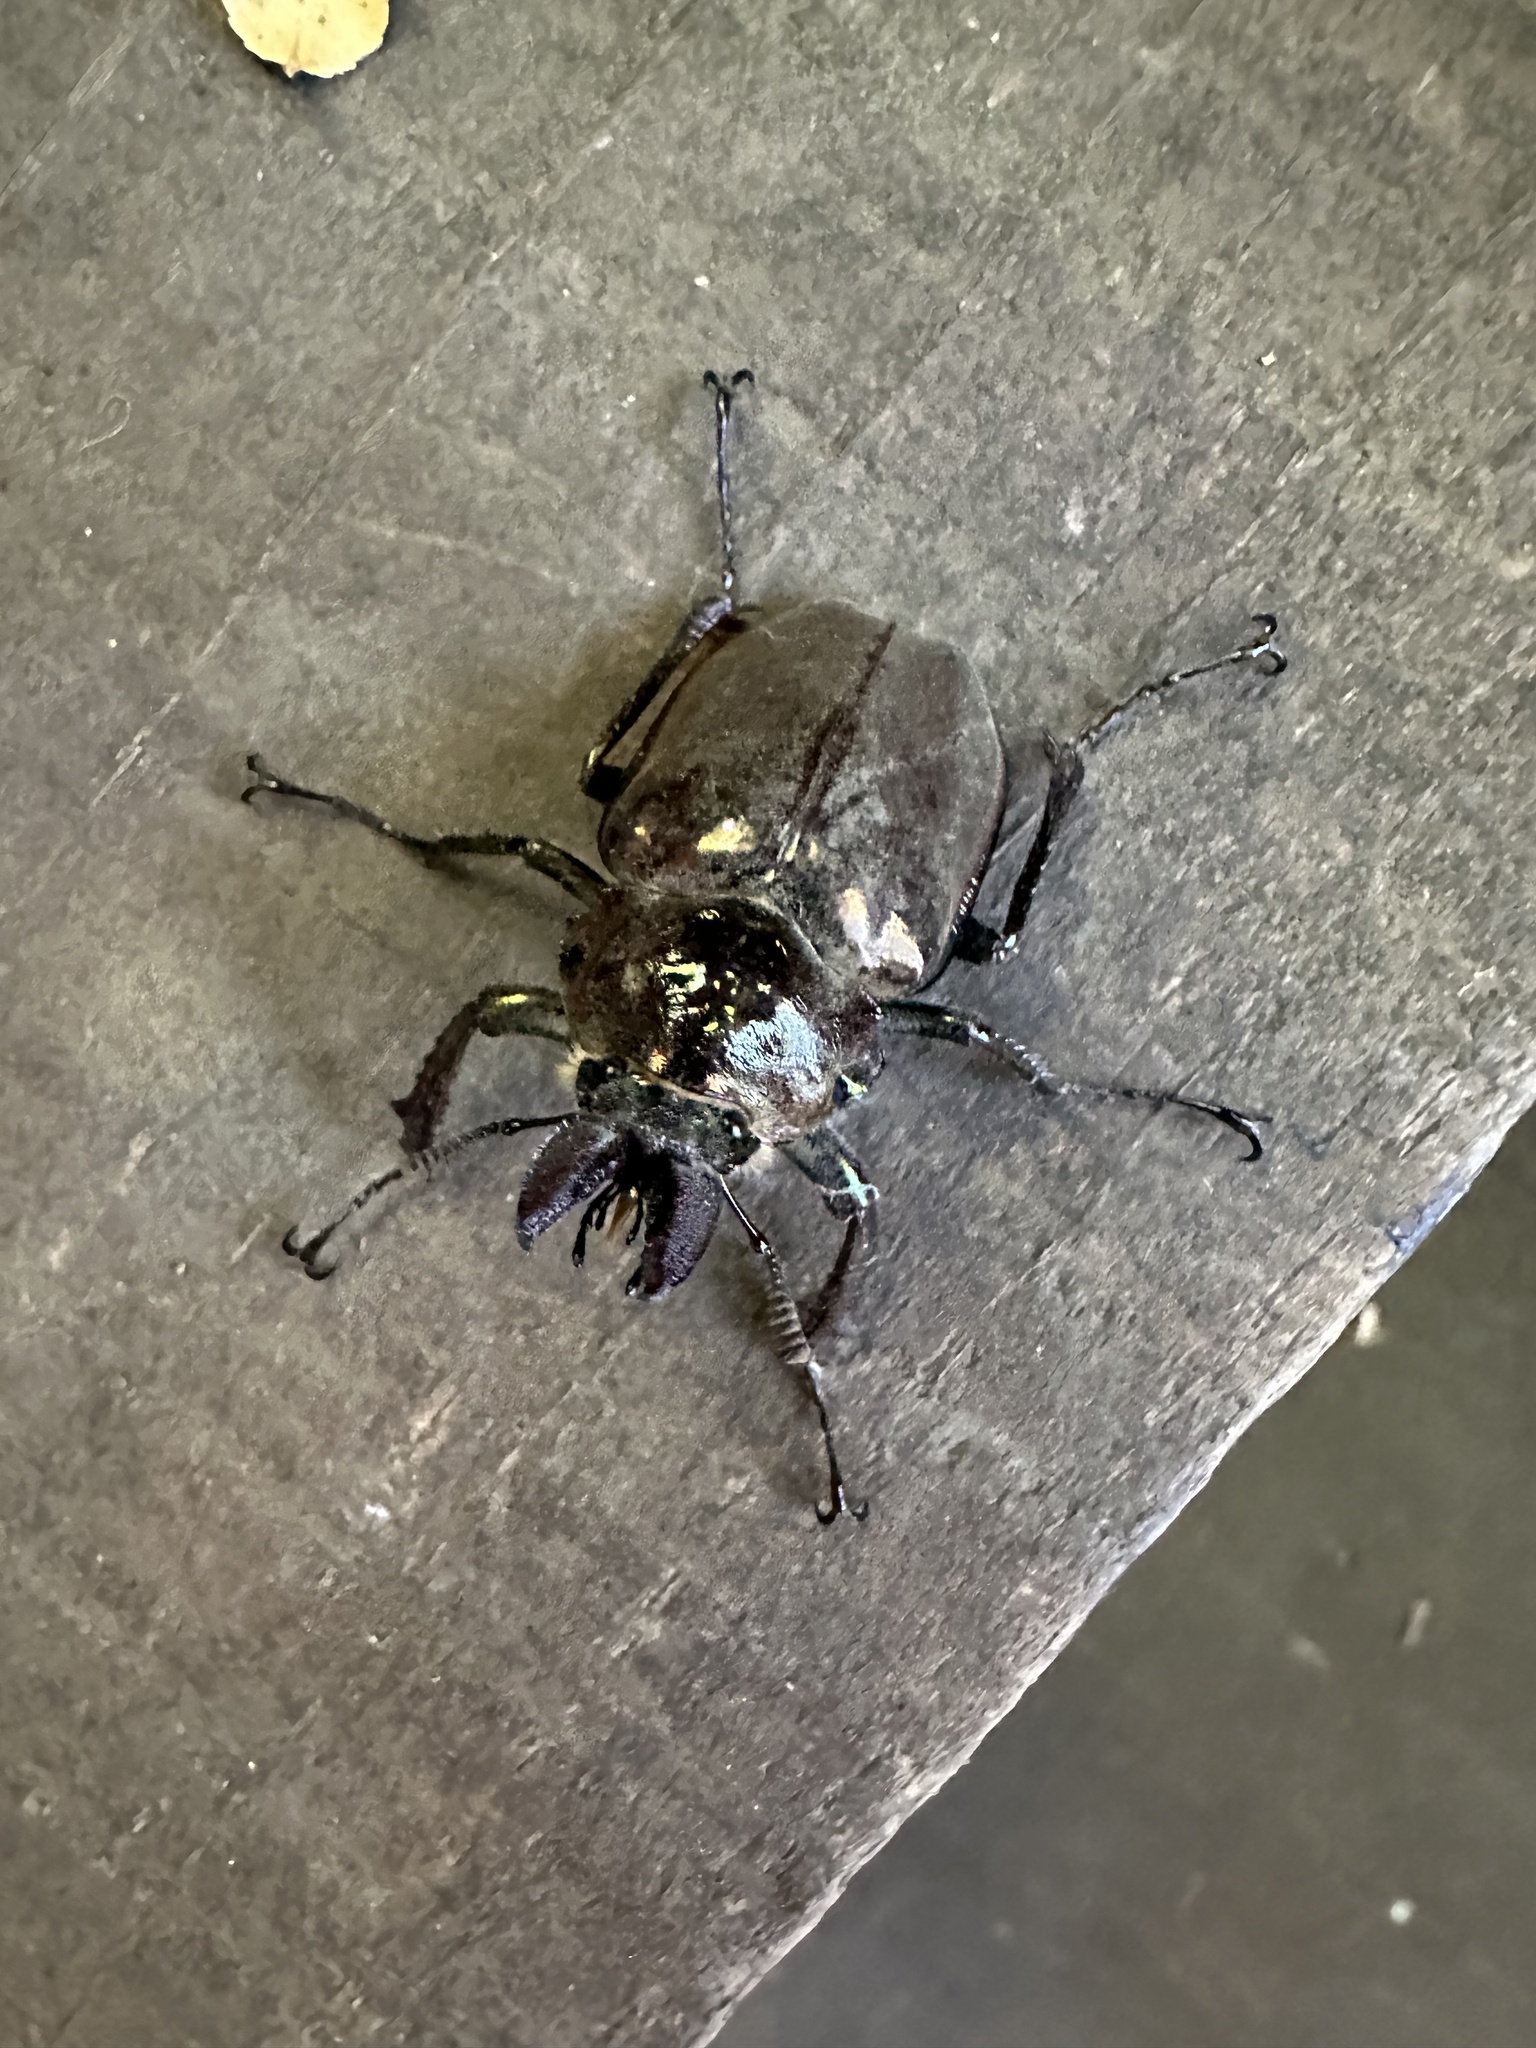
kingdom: Animalia
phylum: Arthropoda
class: Insecta
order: Coleoptera
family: Lucanidae
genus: Chiasognathus
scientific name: Chiasognathus grantii
